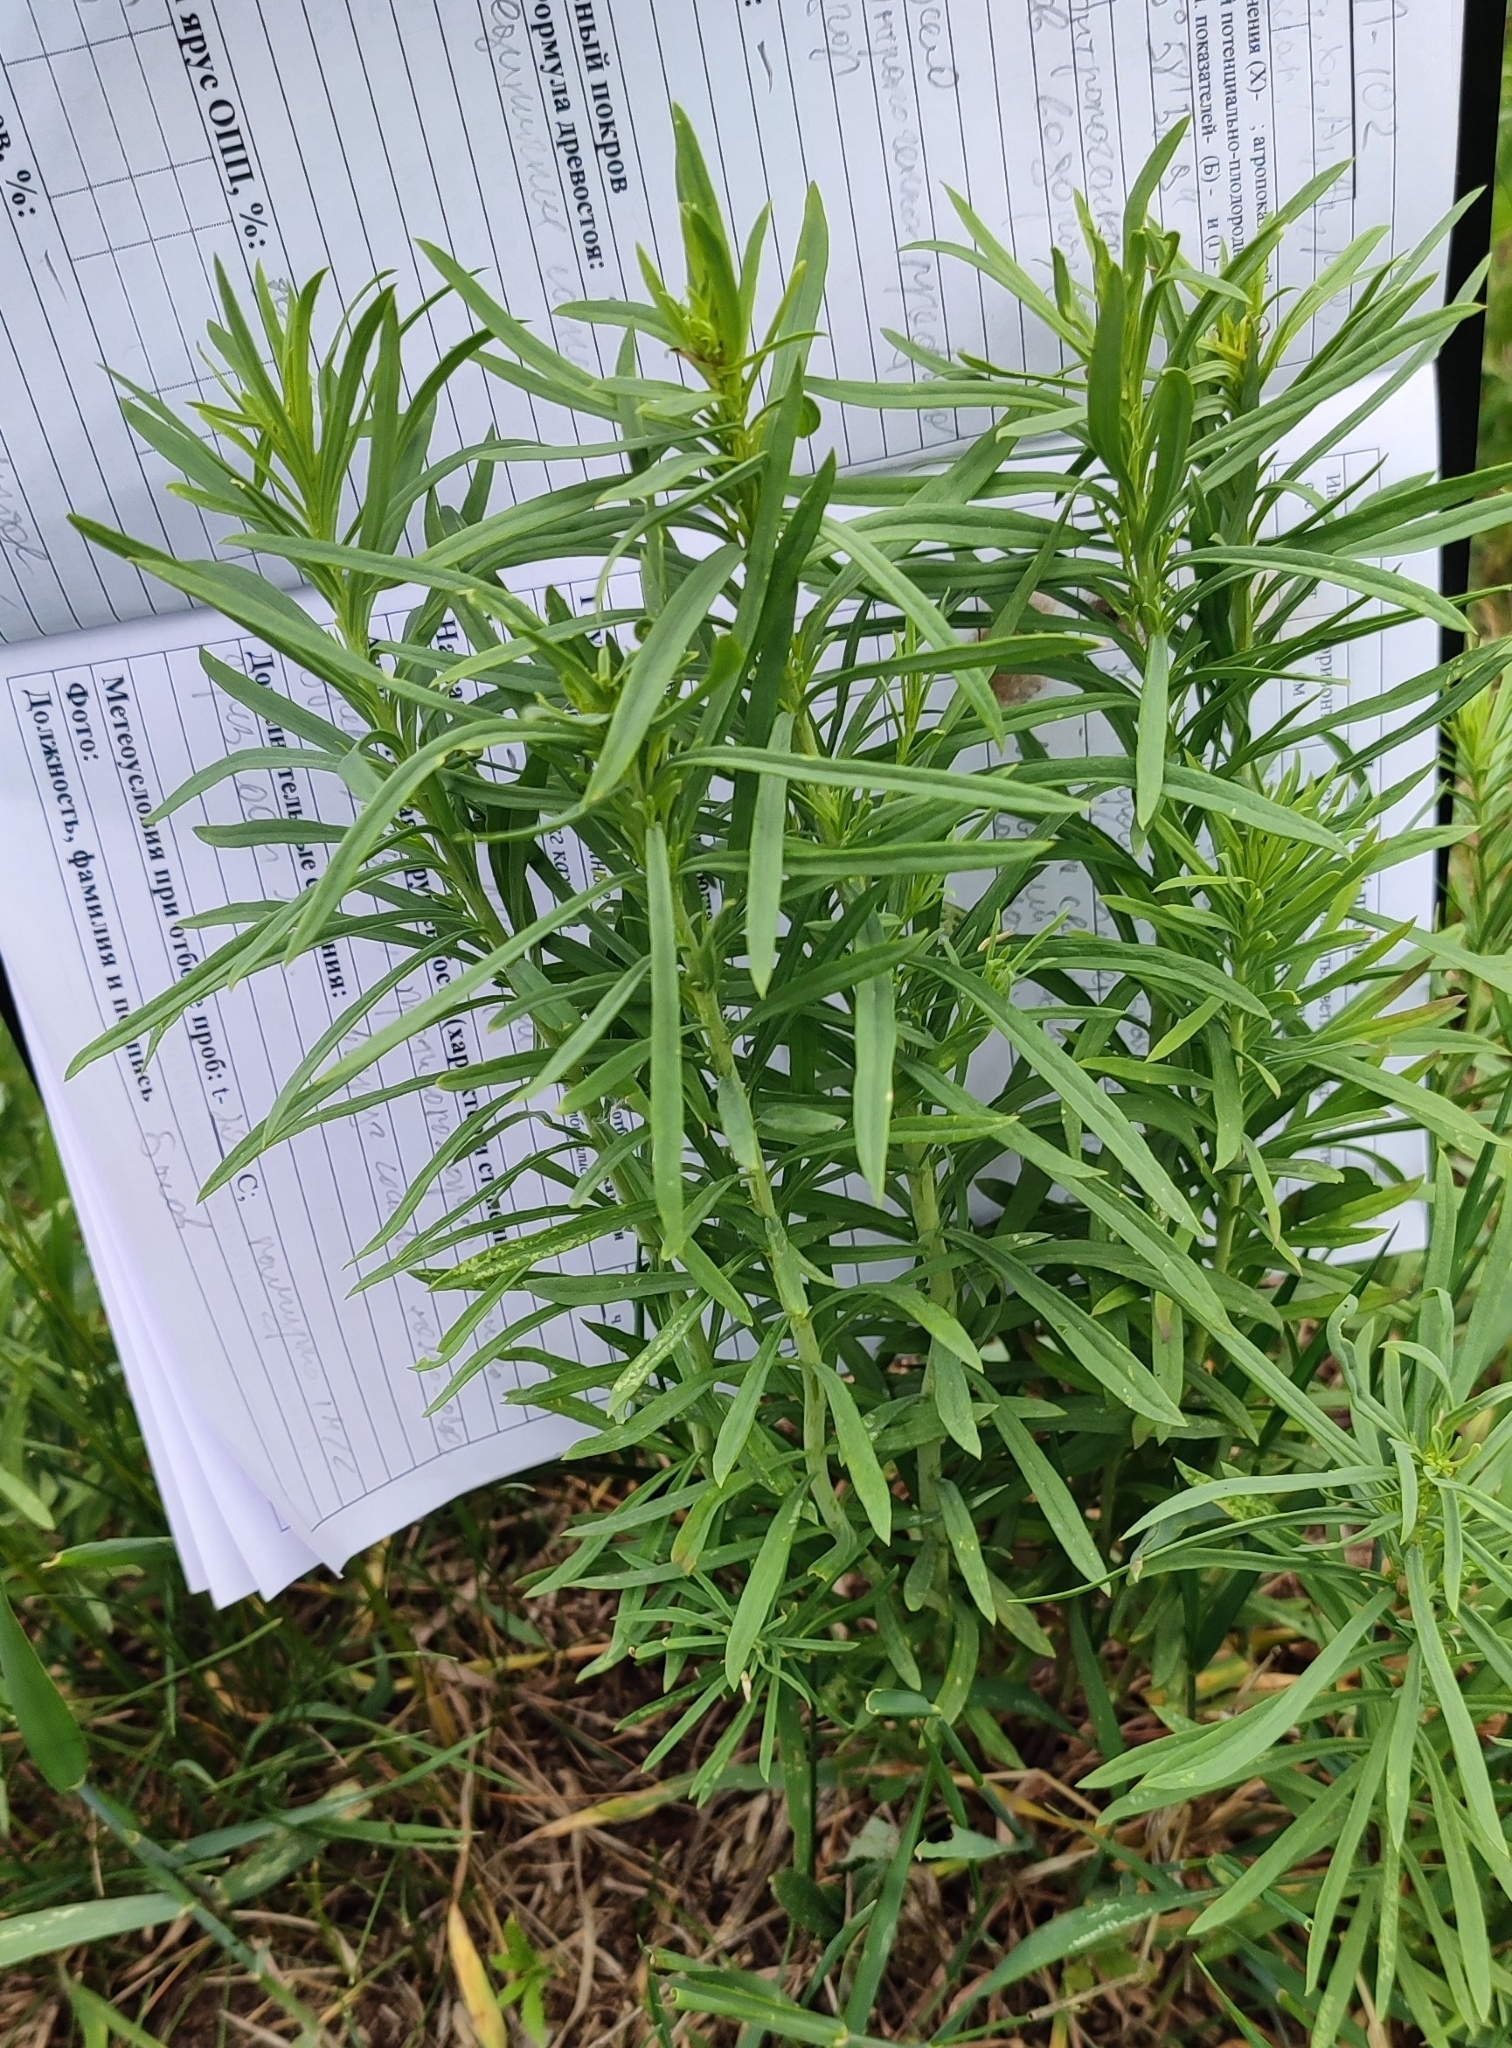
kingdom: Plantae
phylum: Tracheophyta
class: Magnoliopsida
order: Lamiales
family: Plantaginaceae
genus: Linaria
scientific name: Linaria vulgaris
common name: Butter and eggs
